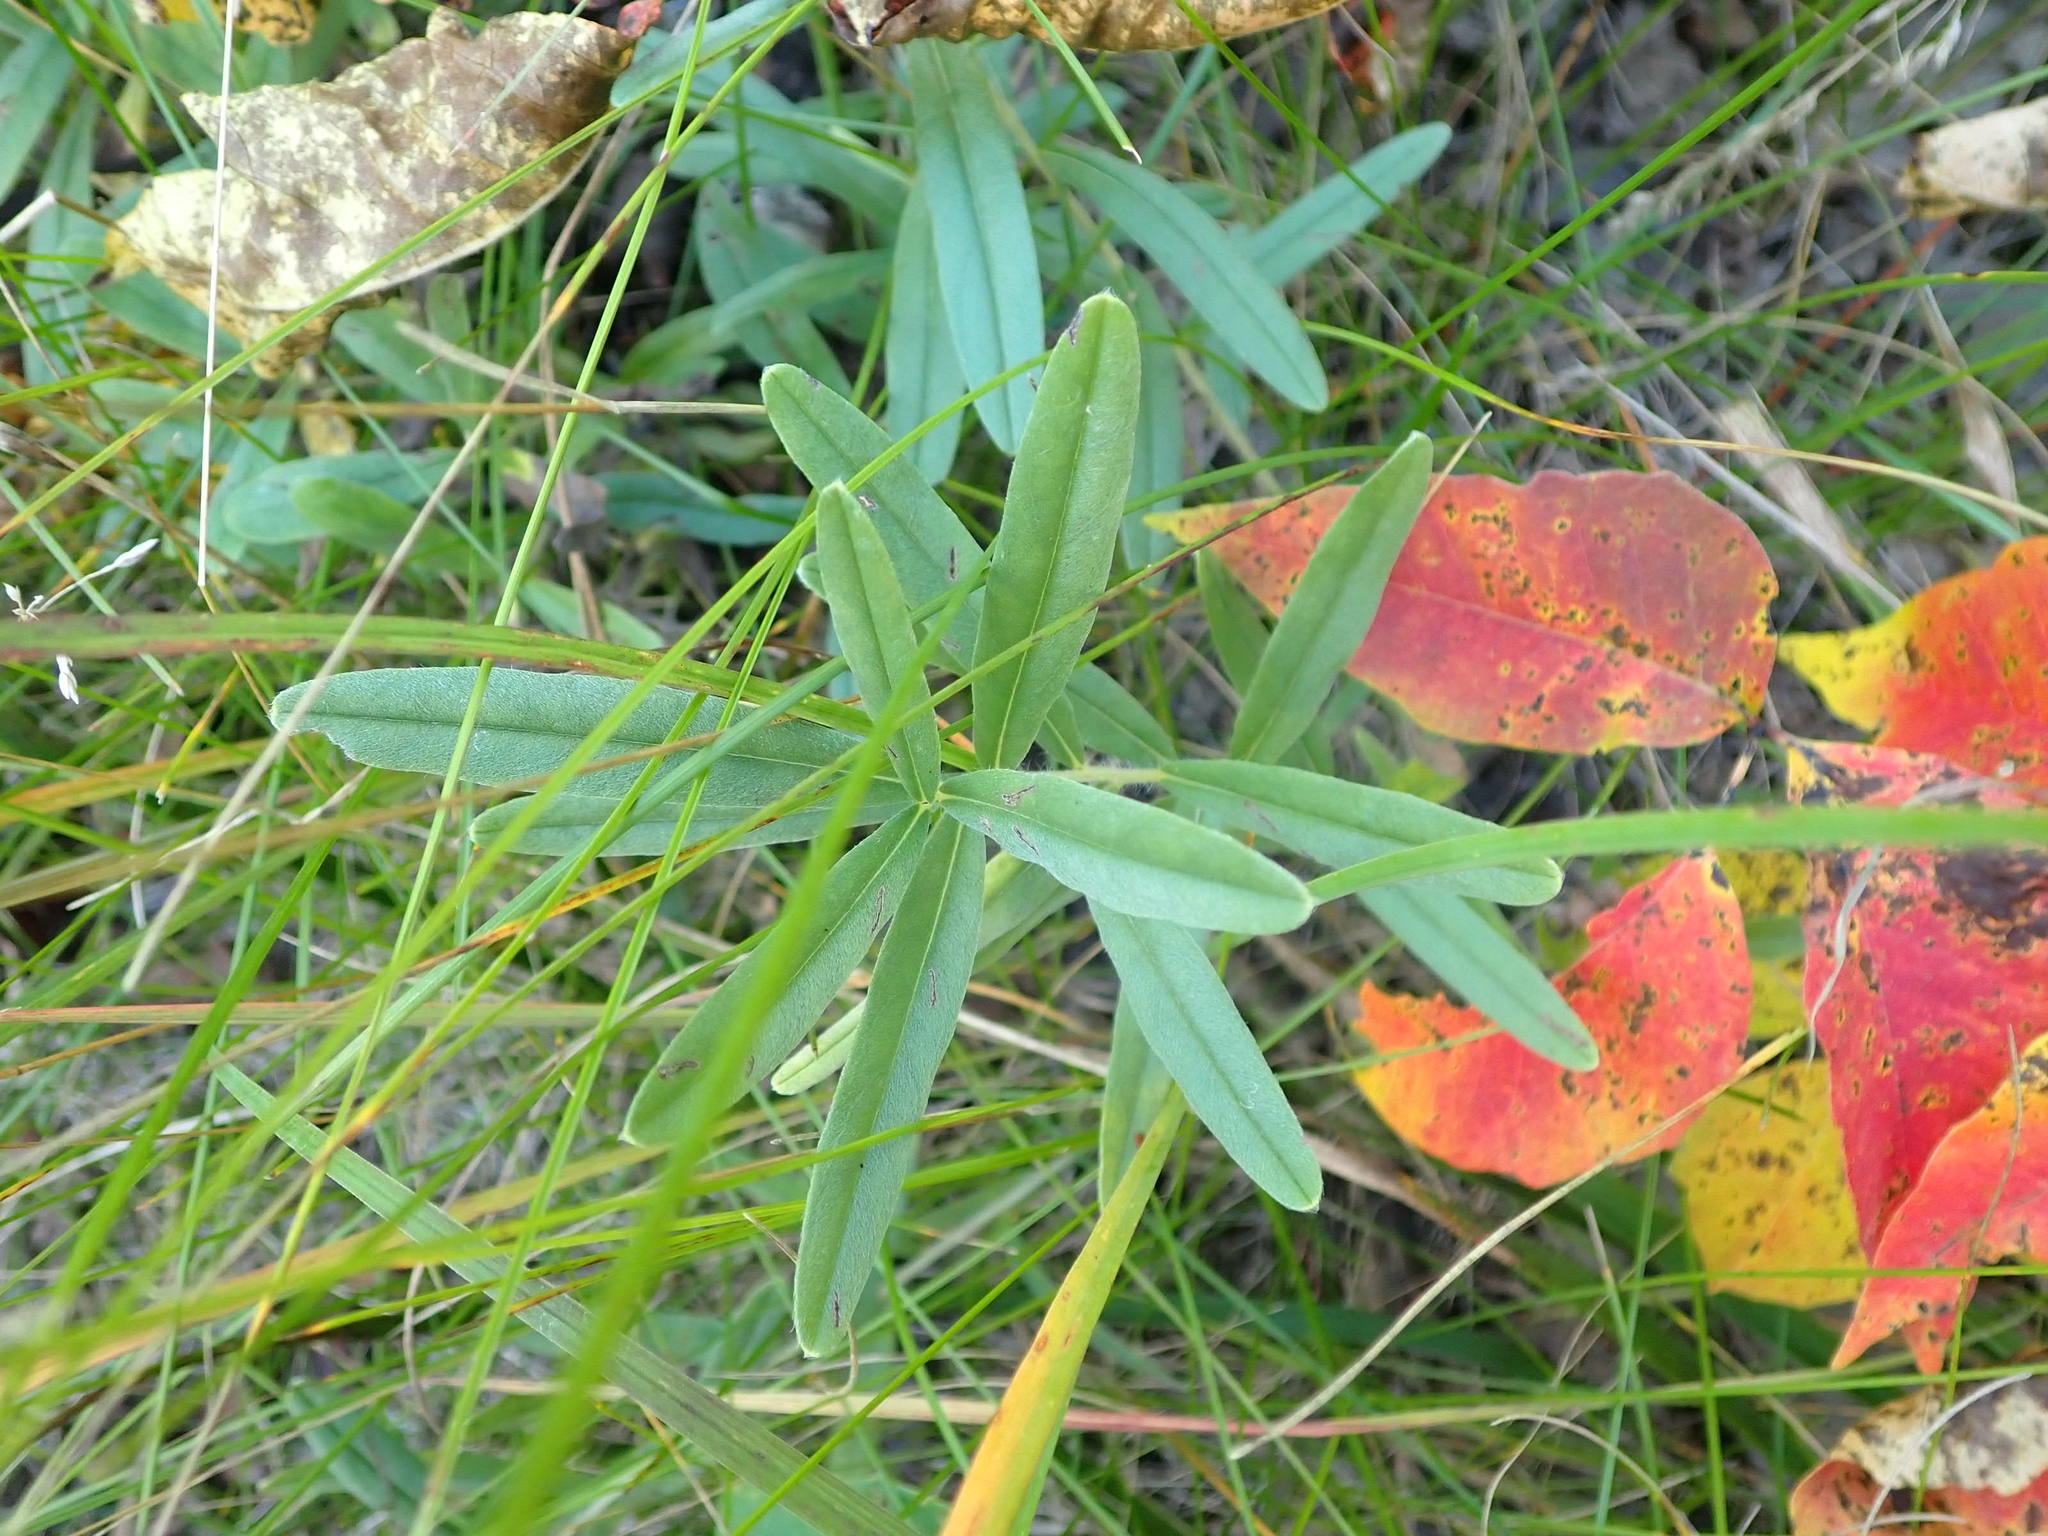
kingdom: Plantae
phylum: Tracheophyta
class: Magnoliopsida
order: Boraginales
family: Boraginaceae
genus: Lithospermum
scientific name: Lithospermum canescens
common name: Hoary puccoon
